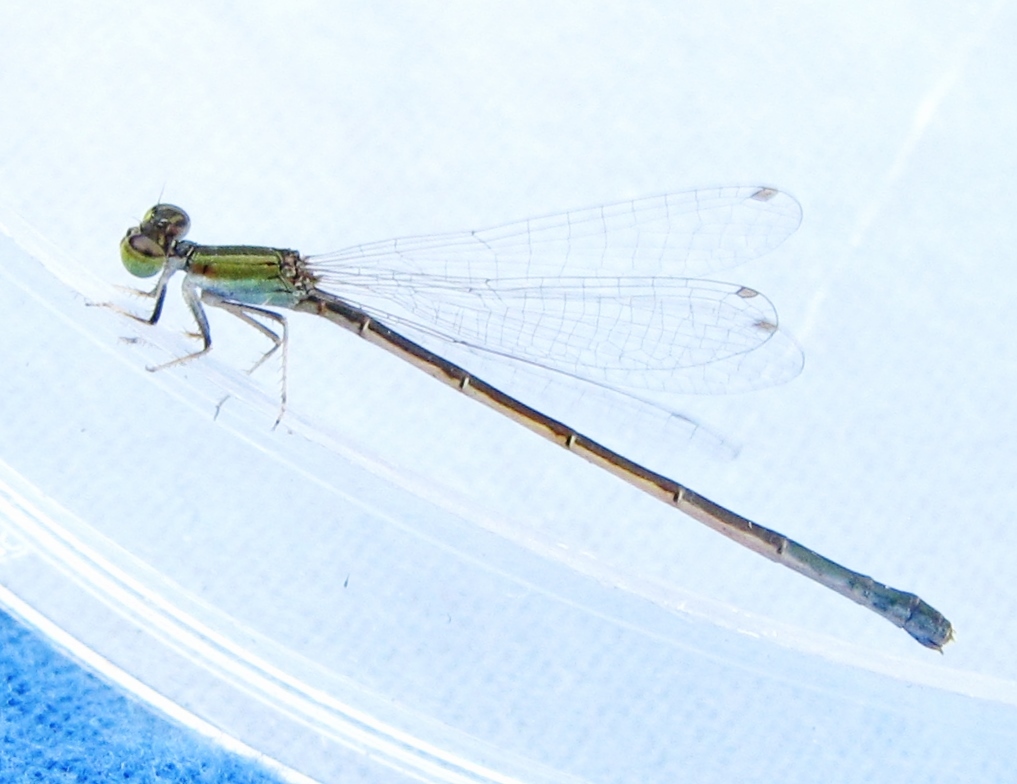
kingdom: Animalia
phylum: Arthropoda
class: Insecta
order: Odonata
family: Coenagrionidae
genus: Ischnura
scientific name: Ischnura hastata
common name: Citrine forktail
